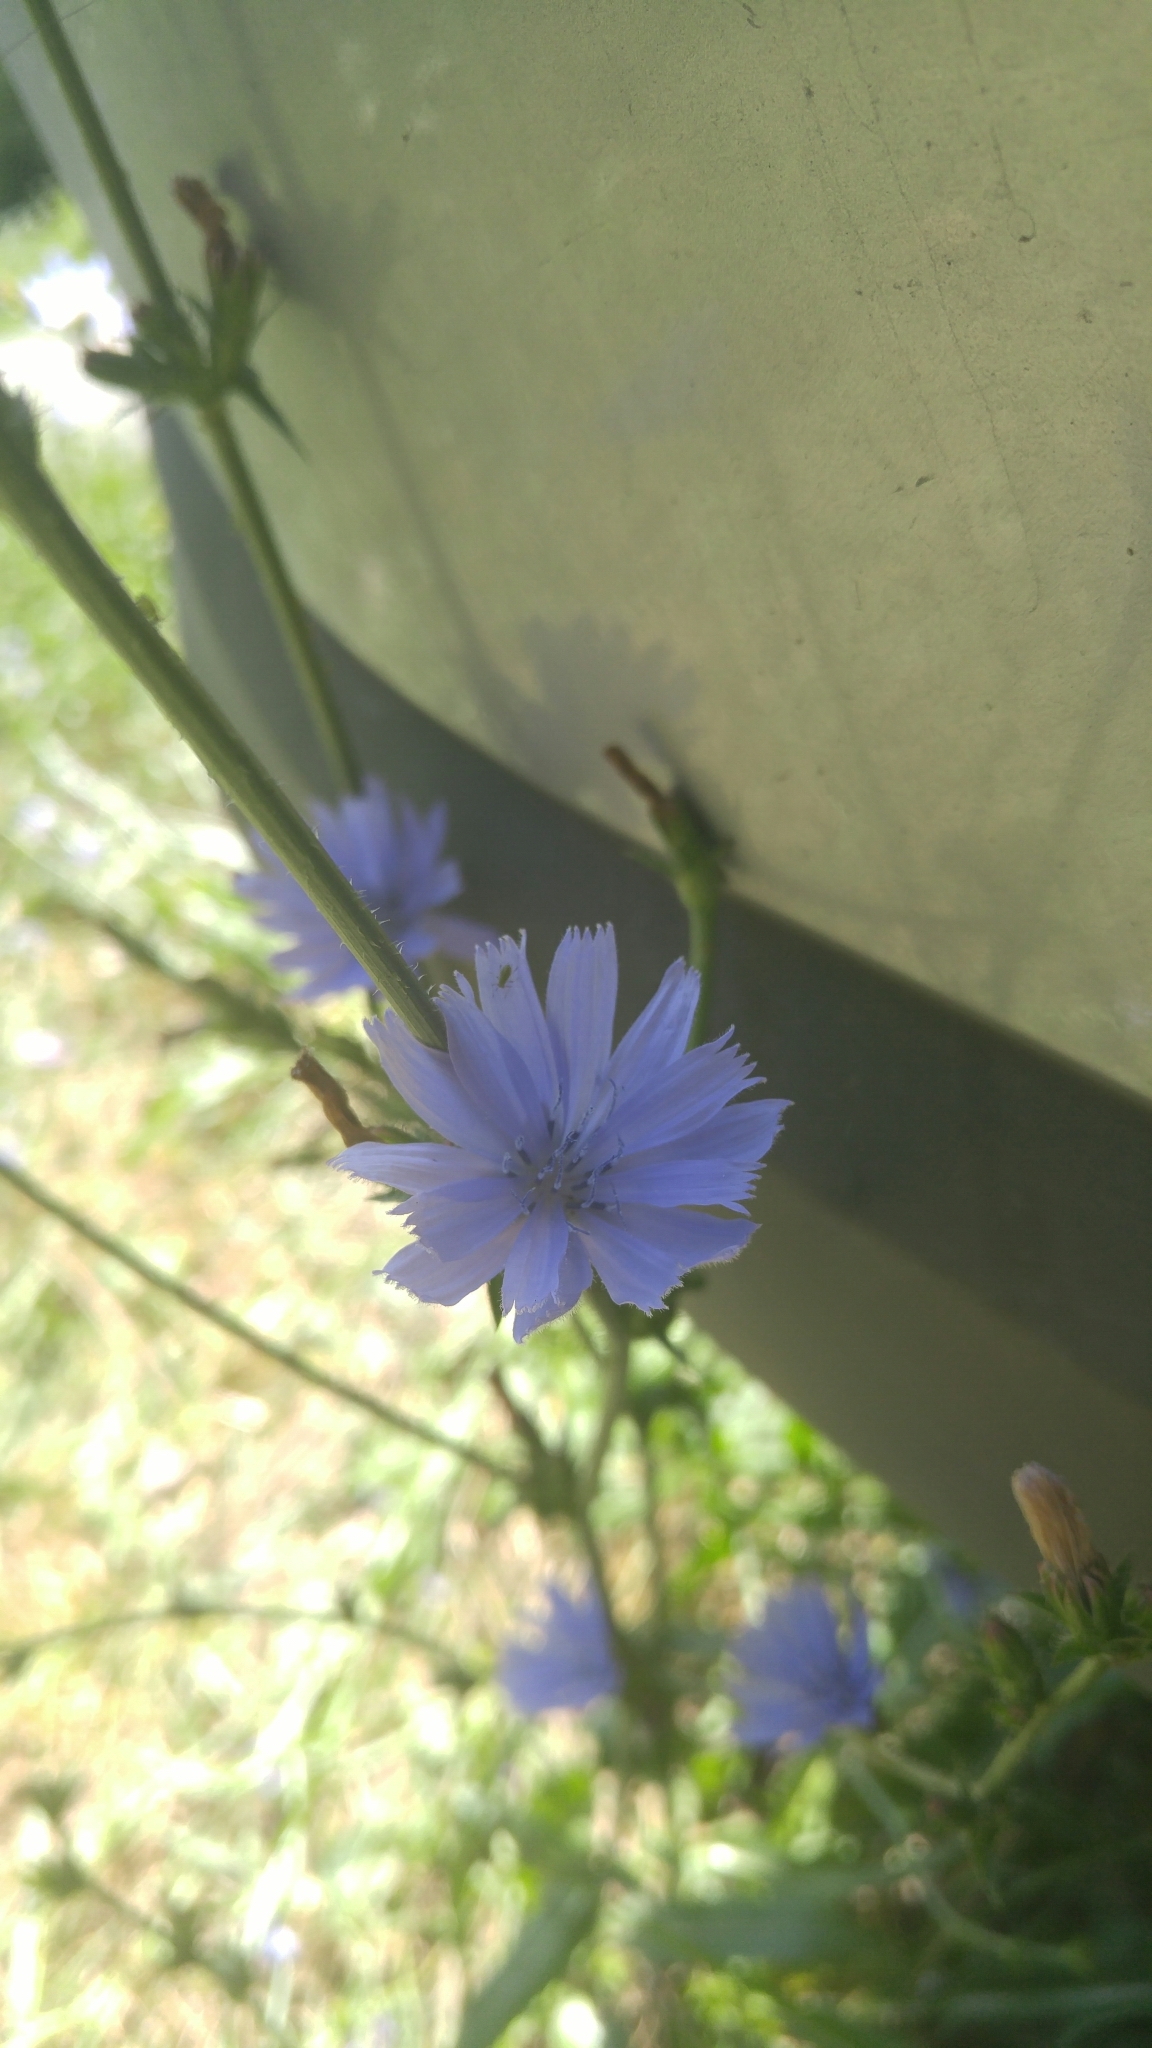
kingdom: Plantae
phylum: Tracheophyta
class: Magnoliopsida
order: Asterales
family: Asteraceae
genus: Cichorium
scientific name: Cichorium intybus
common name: Chicory
